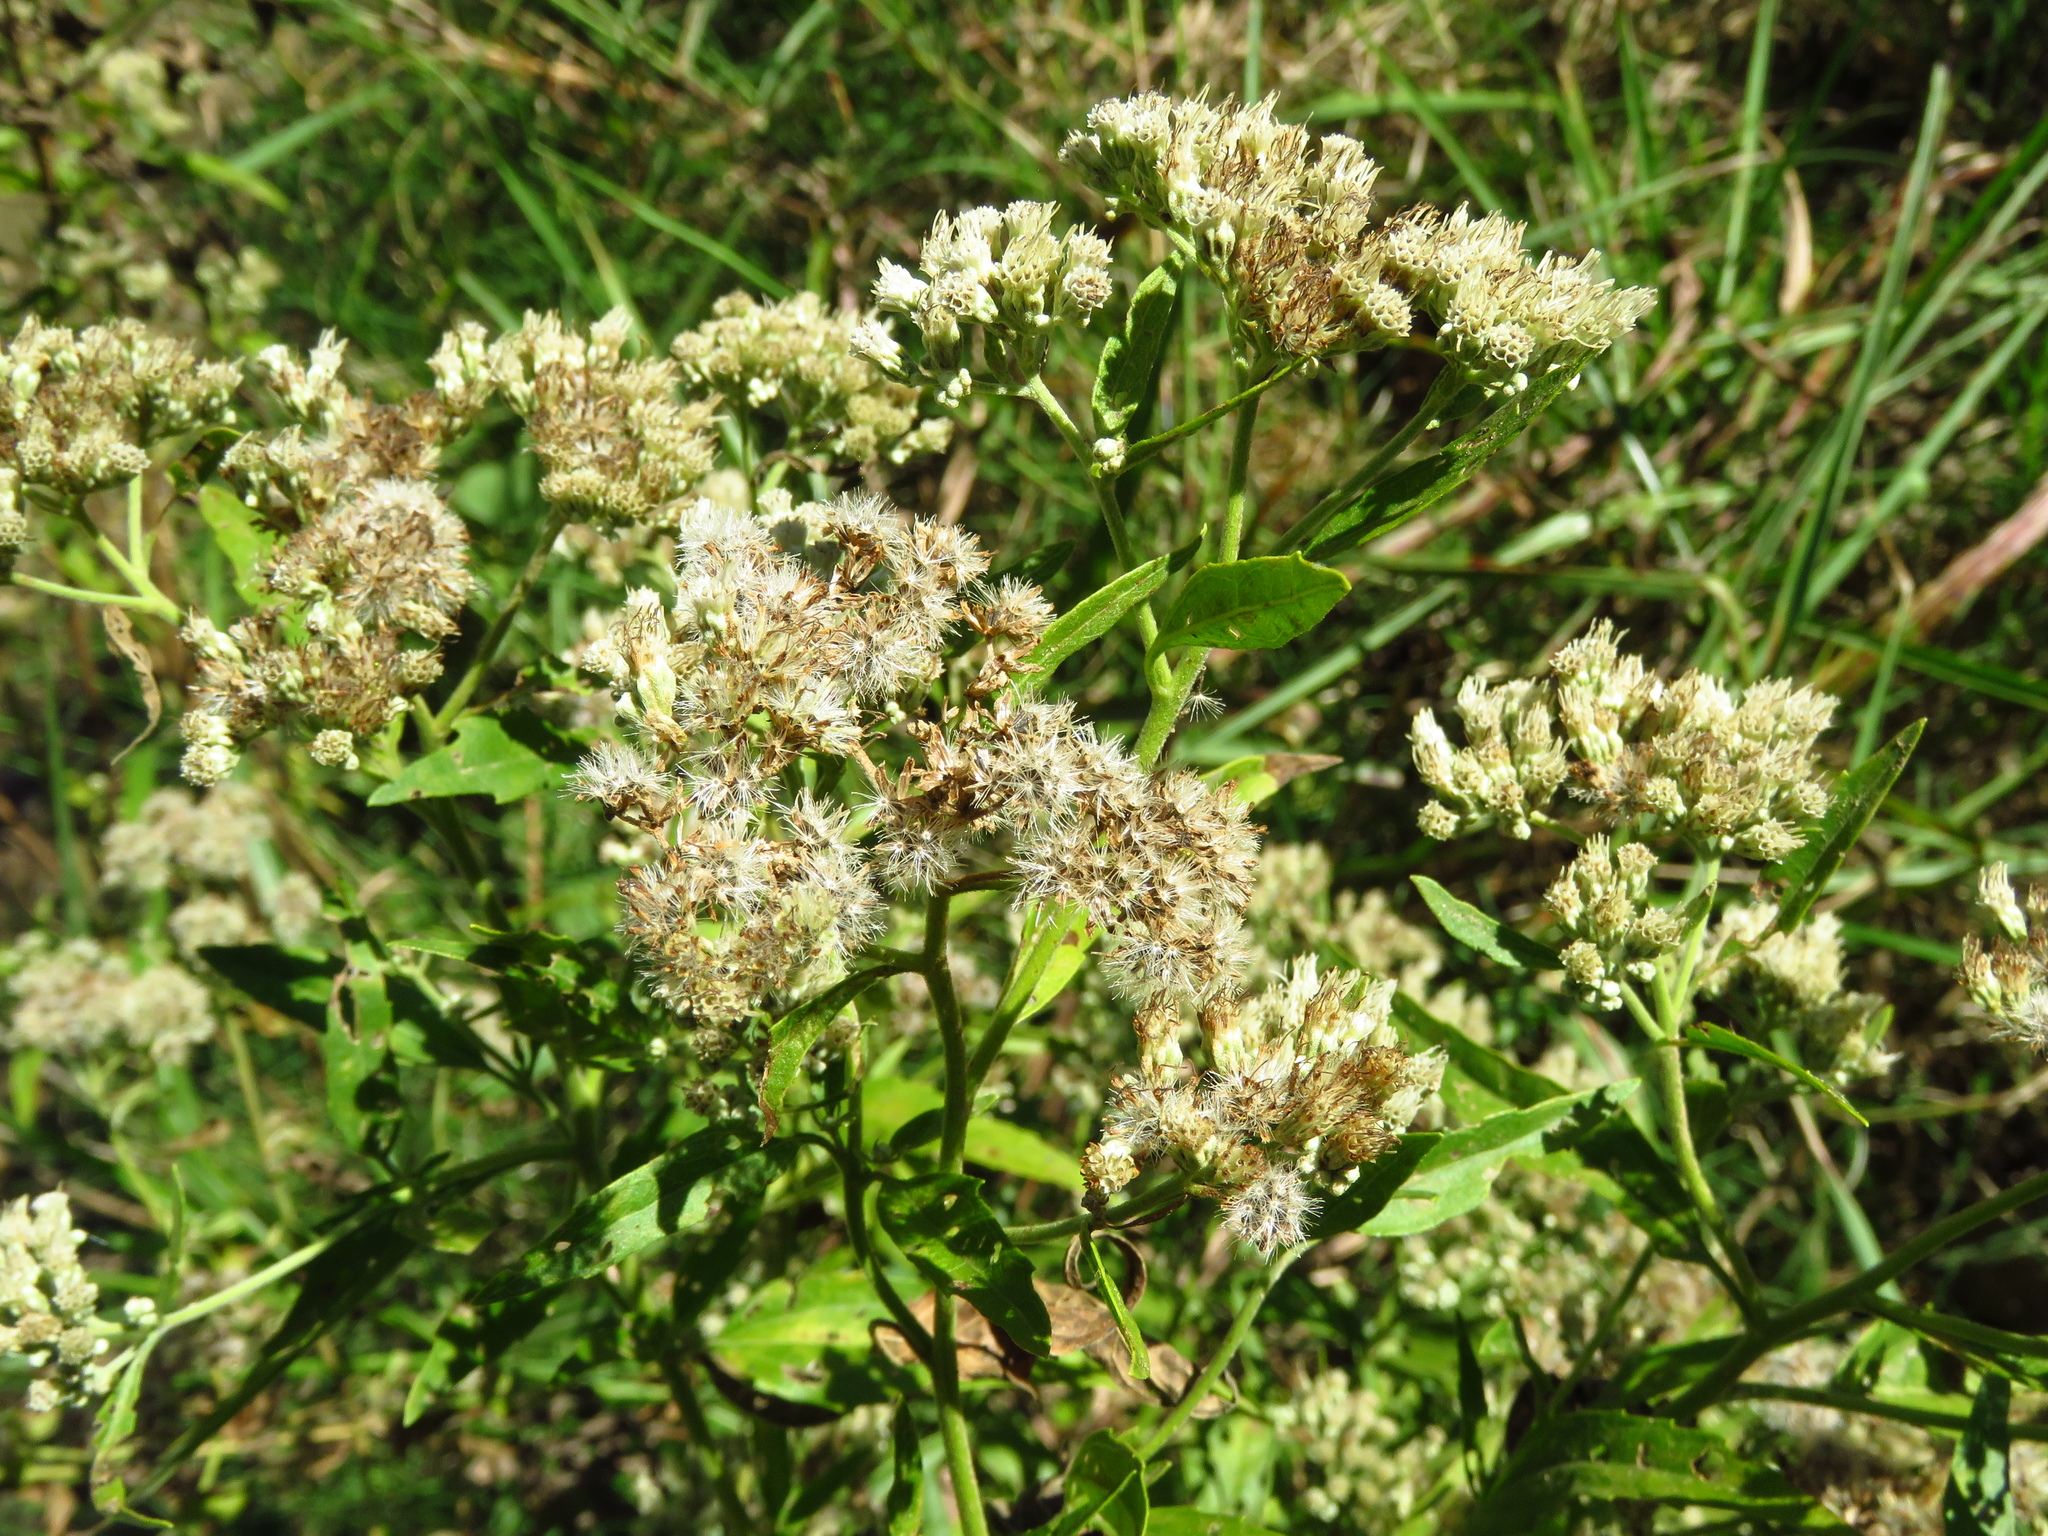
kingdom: Plantae
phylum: Tracheophyta
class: Magnoliopsida
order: Asterales
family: Asteraceae
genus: Eupatorium
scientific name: Eupatorium serotinum
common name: Late boneset
